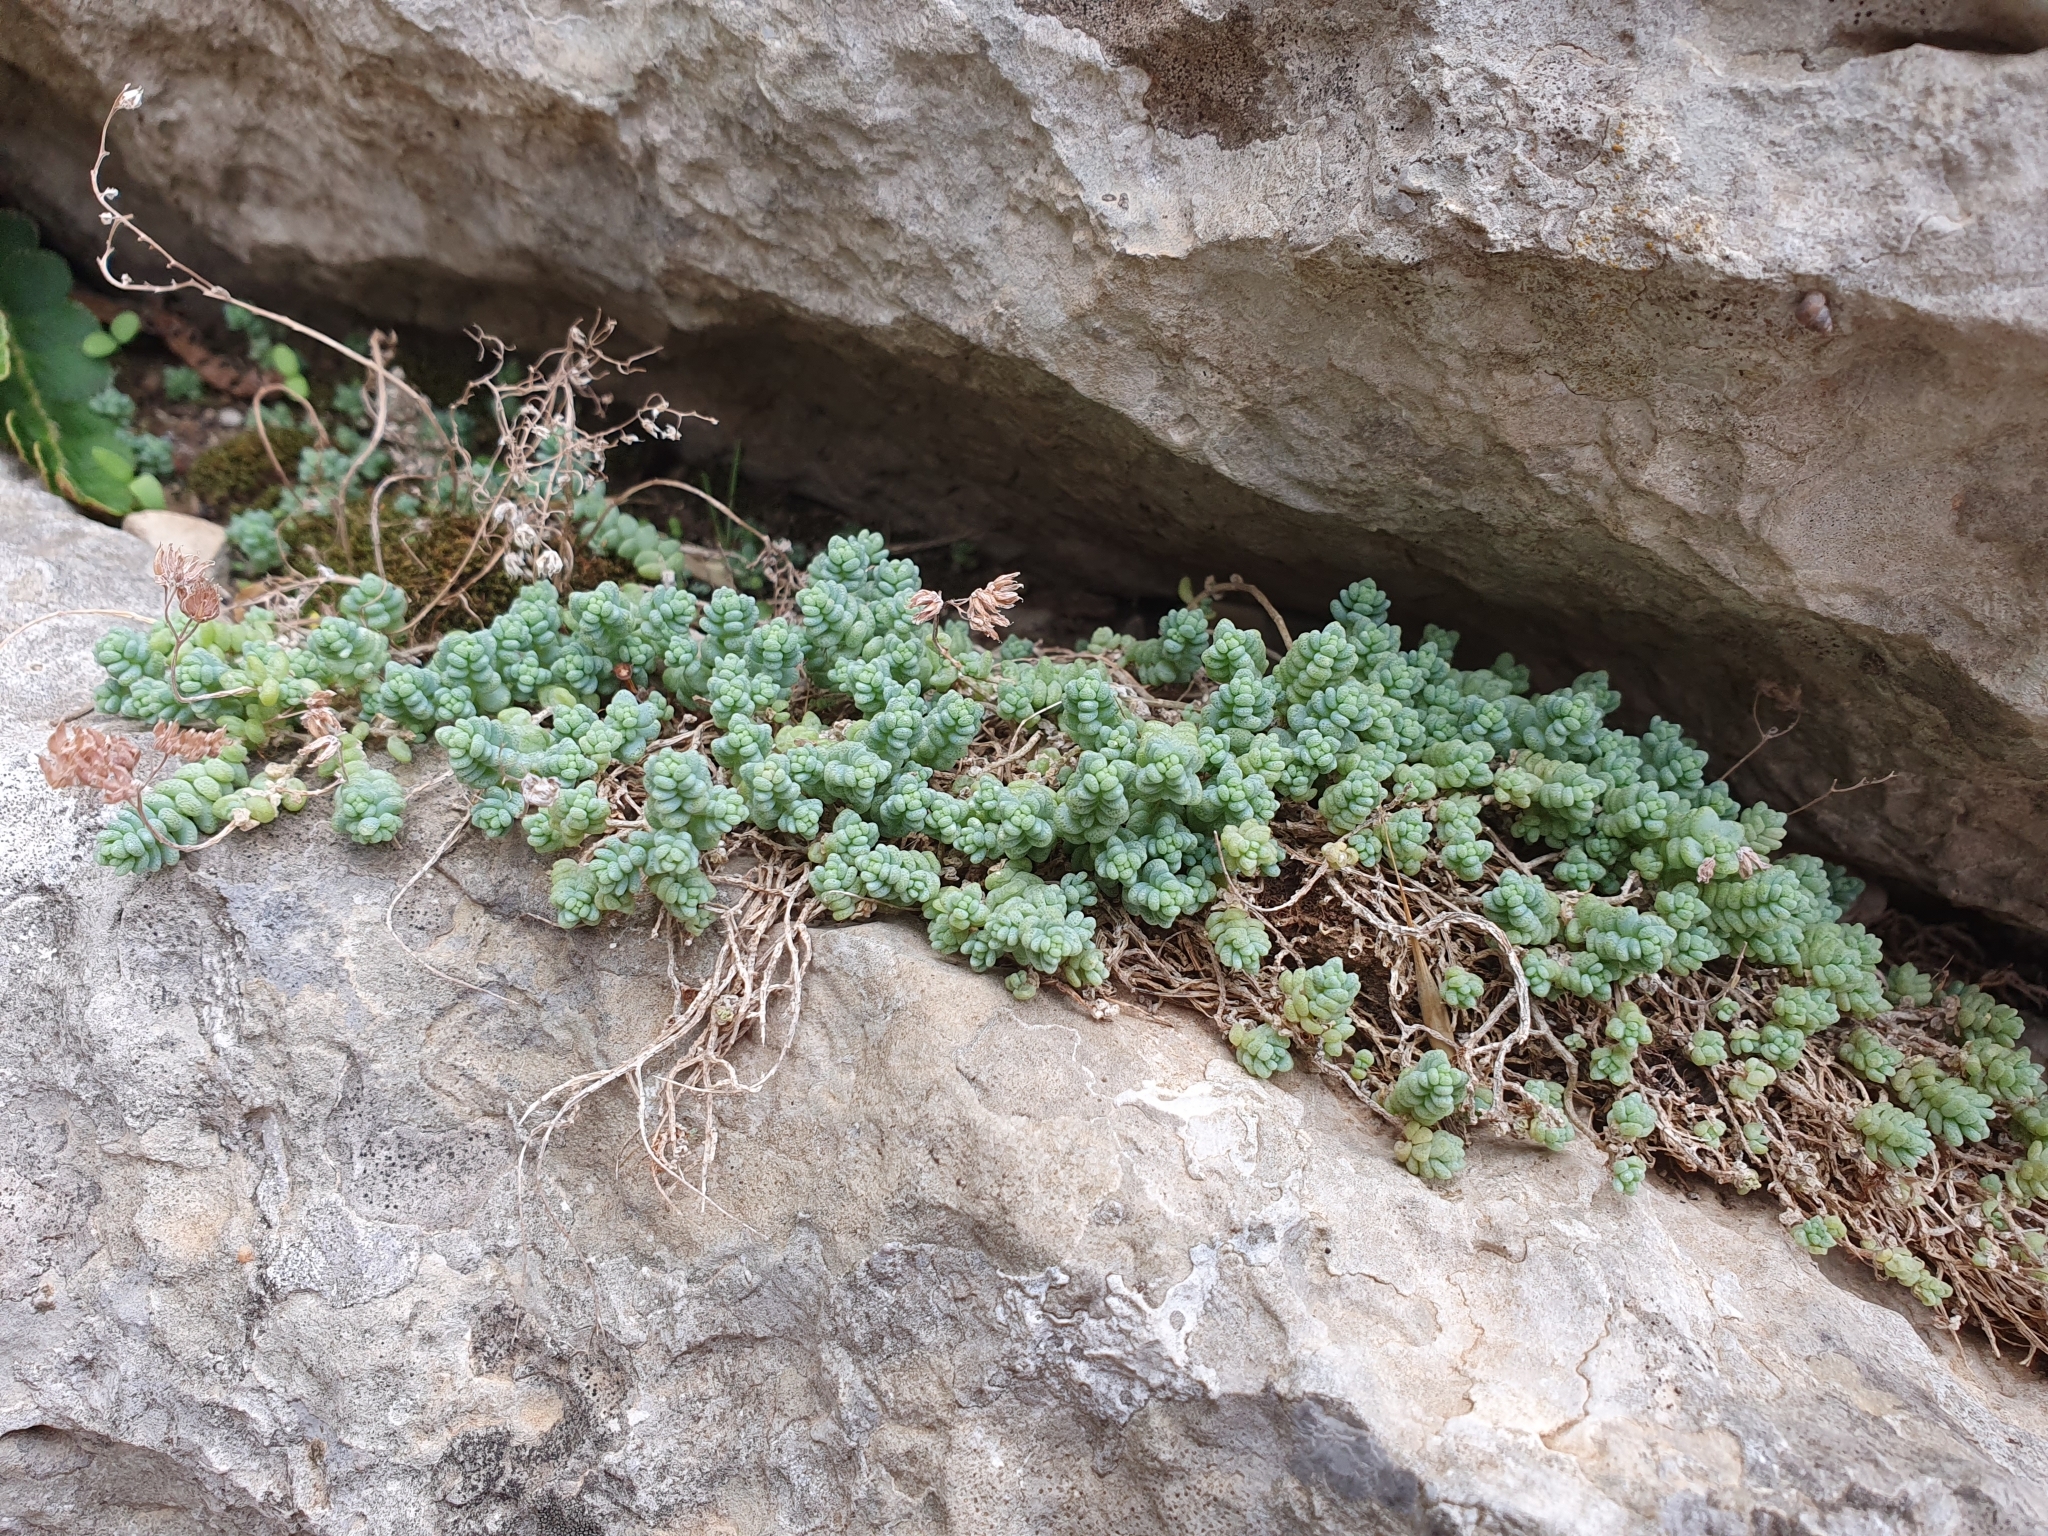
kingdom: Plantae
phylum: Tracheophyta
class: Magnoliopsida
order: Saxifragales
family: Crassulaceae
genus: Sedum
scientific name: Sedum dasyphyllum
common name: Thick-leaf stonecrop
